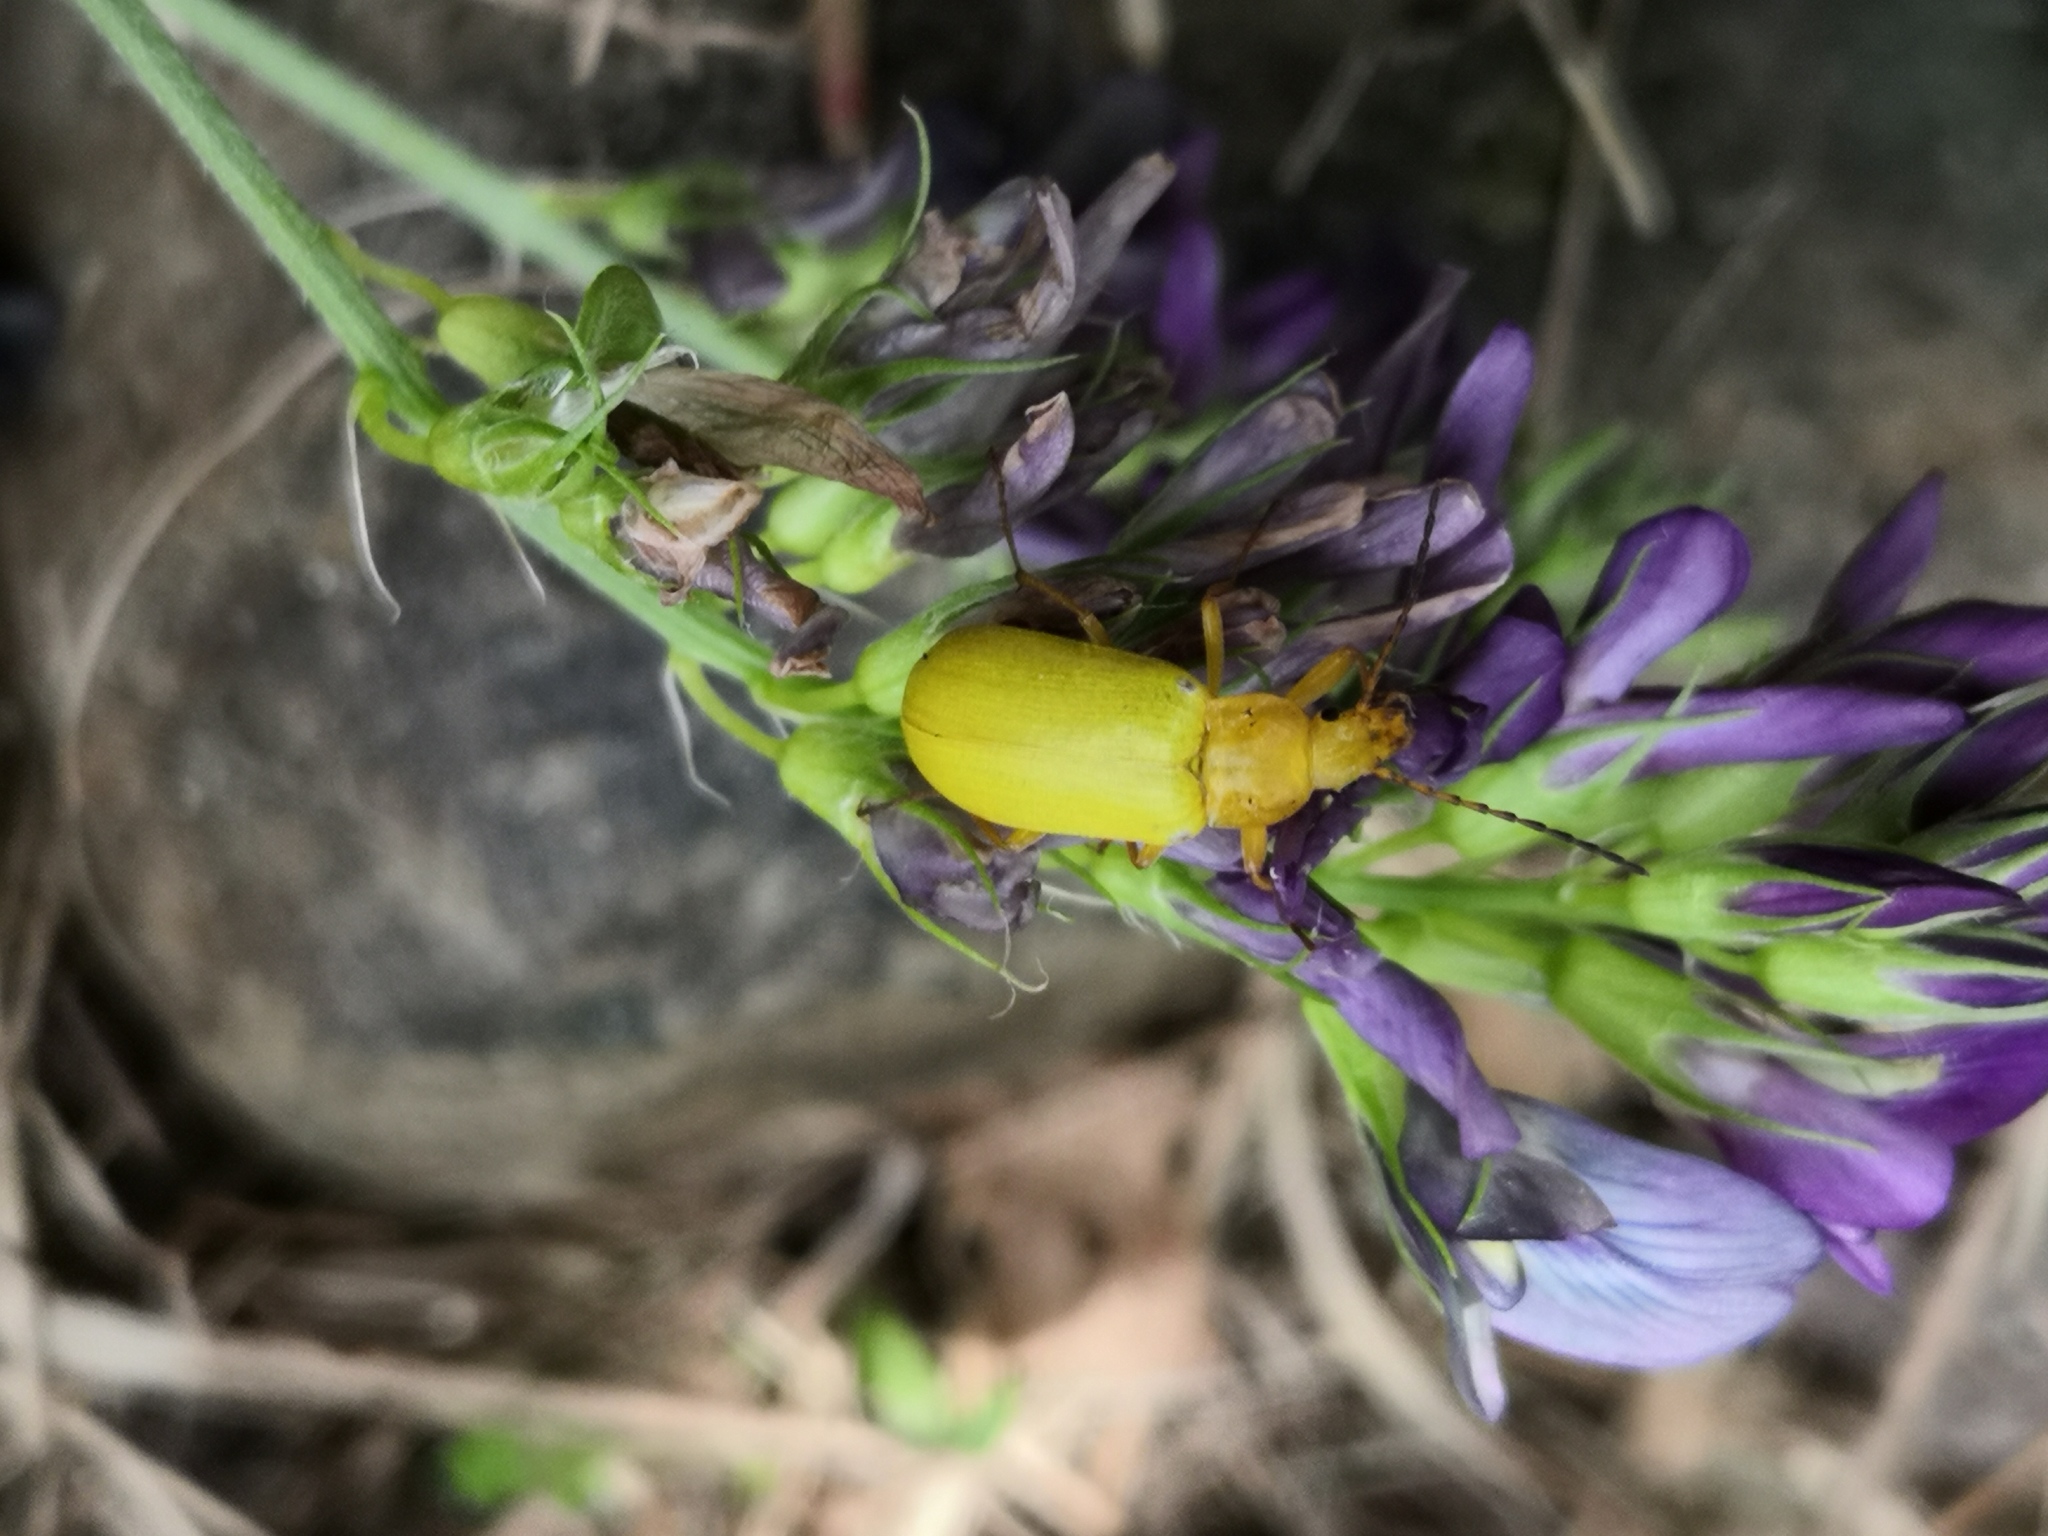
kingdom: Animalia
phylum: Arthropoda
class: Insecta
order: Coleoptera
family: Tenebrionidae
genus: Cteniopus
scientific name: Cteniopus sulphureus
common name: Sulphur beetle
